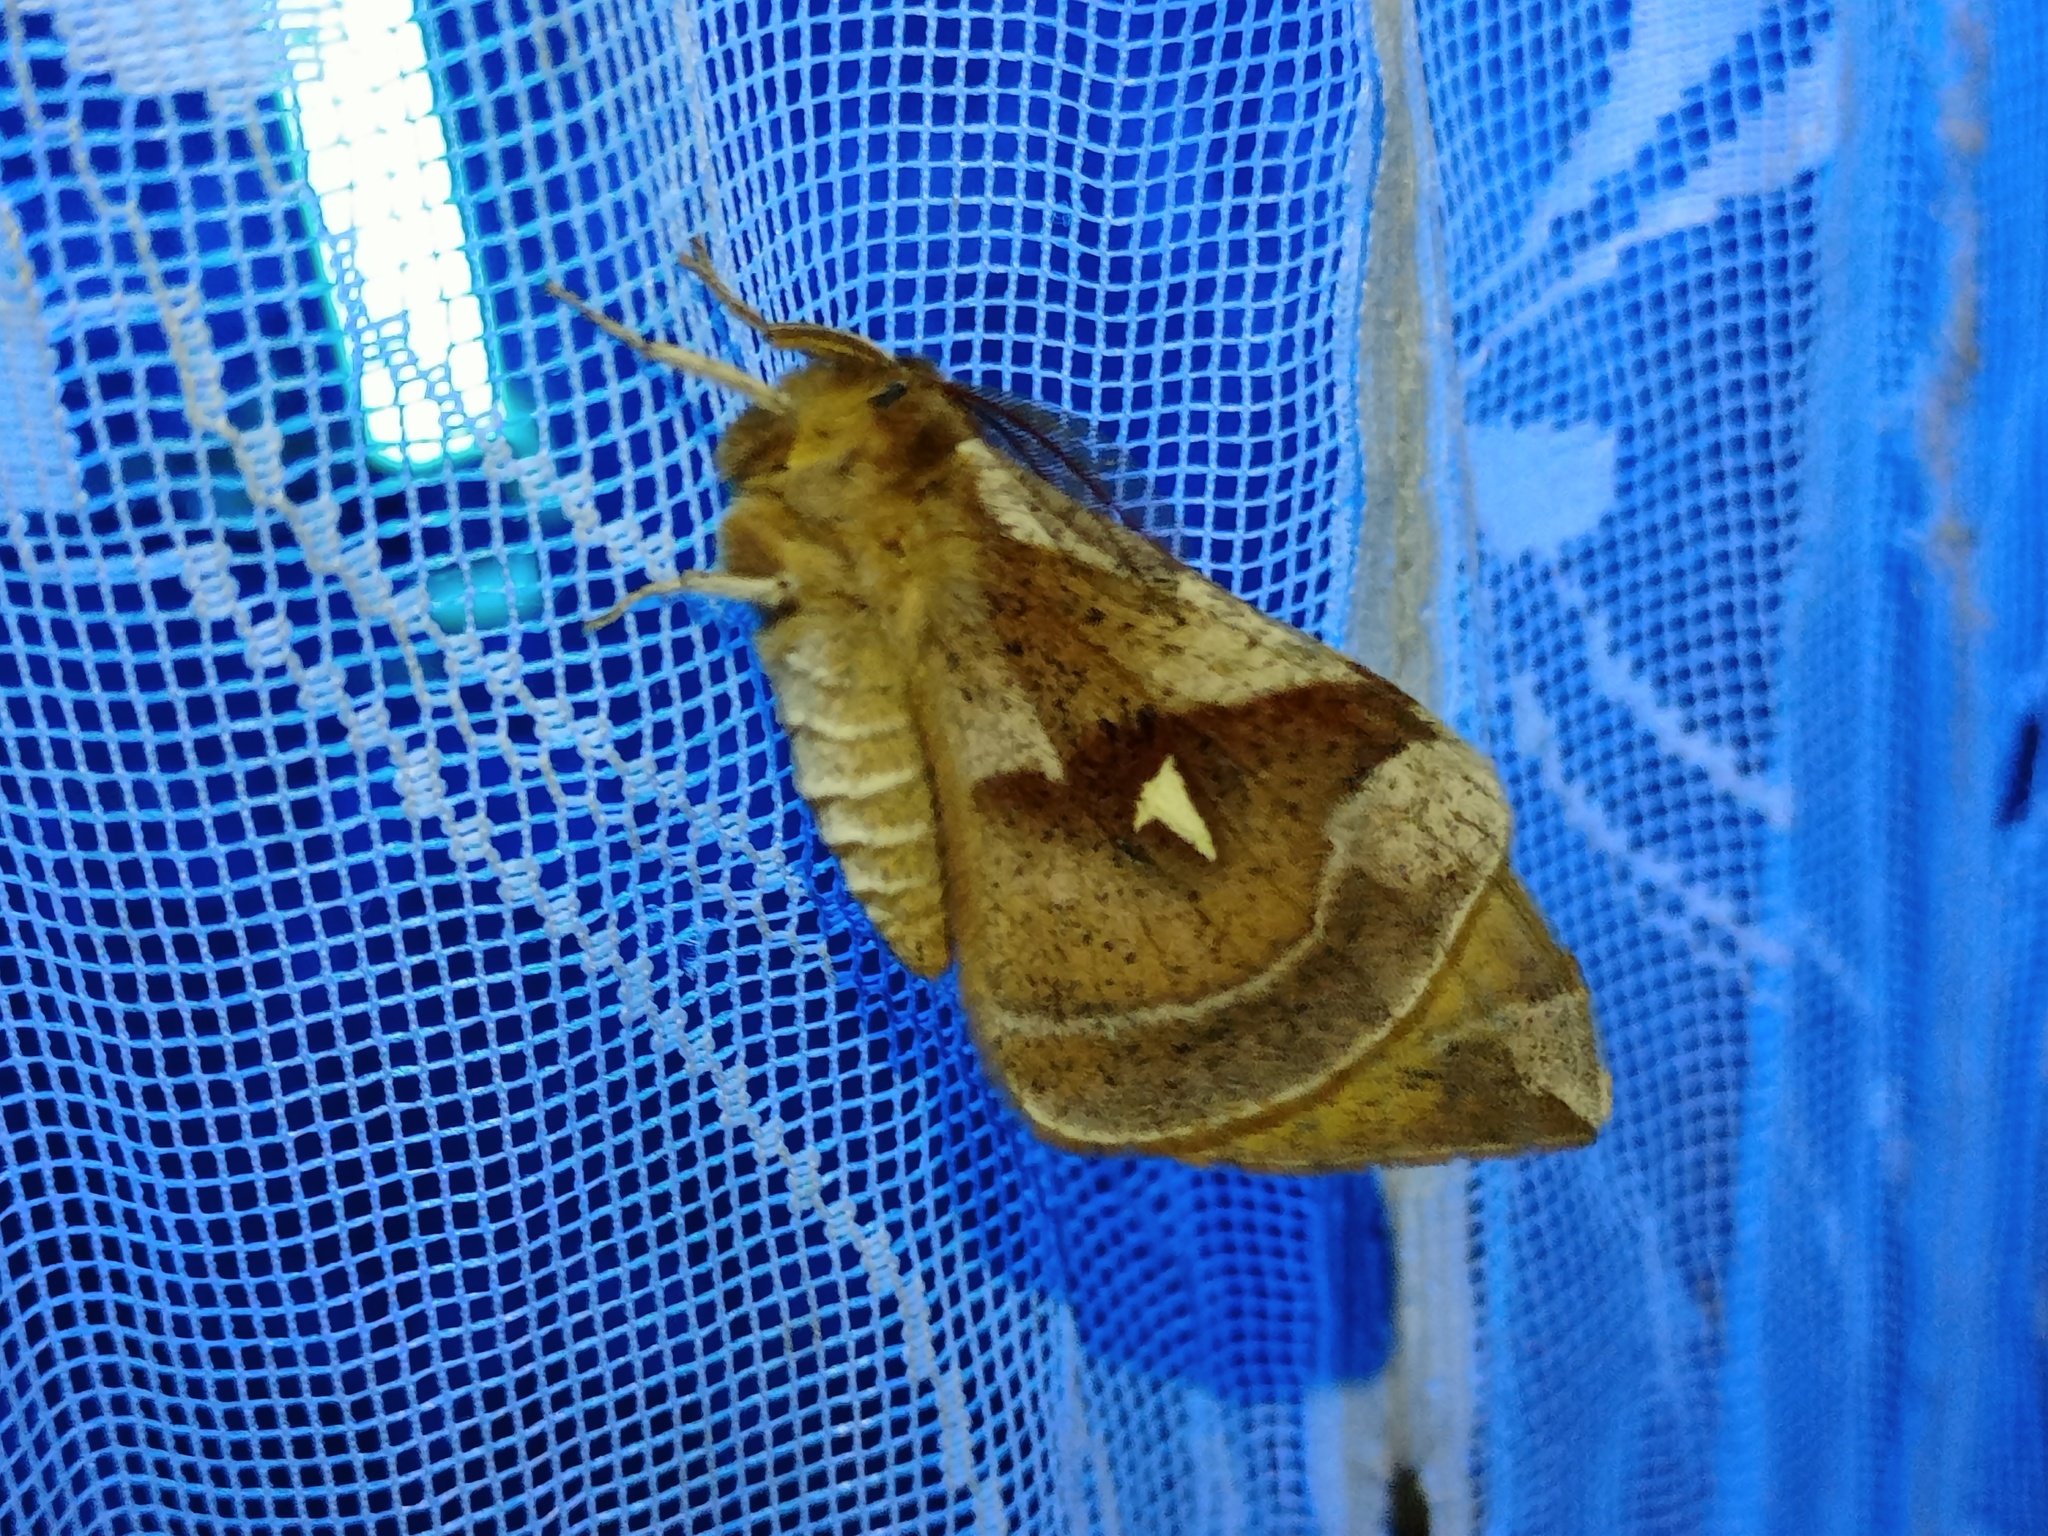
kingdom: Animalia
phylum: Arthropoda
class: Insecta
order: Lepidoptera
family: Saturniidae
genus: Aglia
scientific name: Aglia tau
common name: Tau emperor
